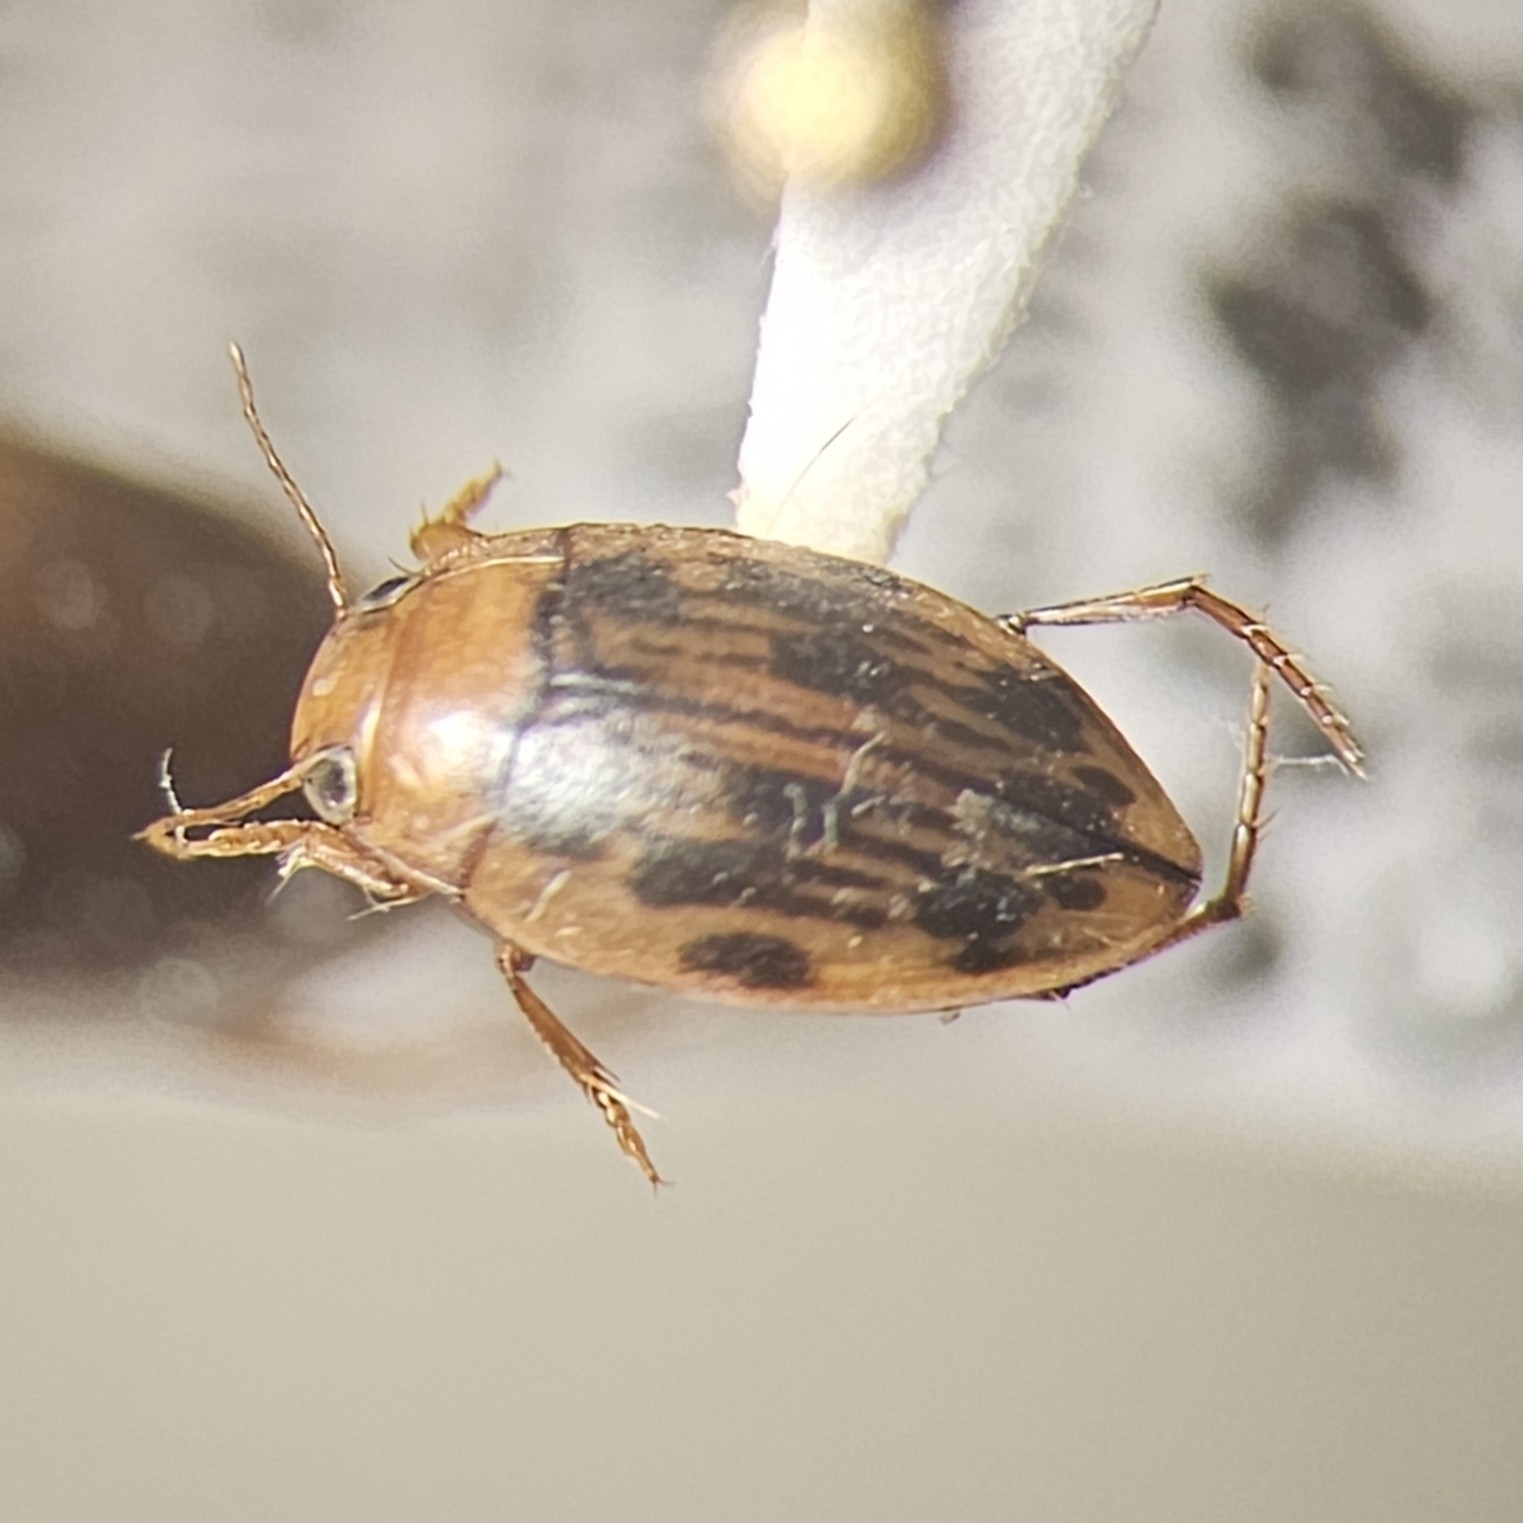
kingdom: Animalia
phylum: Arthropoda
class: Insecta
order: Coleoptera
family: Dytiscidae
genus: Neoporus
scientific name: Neoporus dimidiatus
